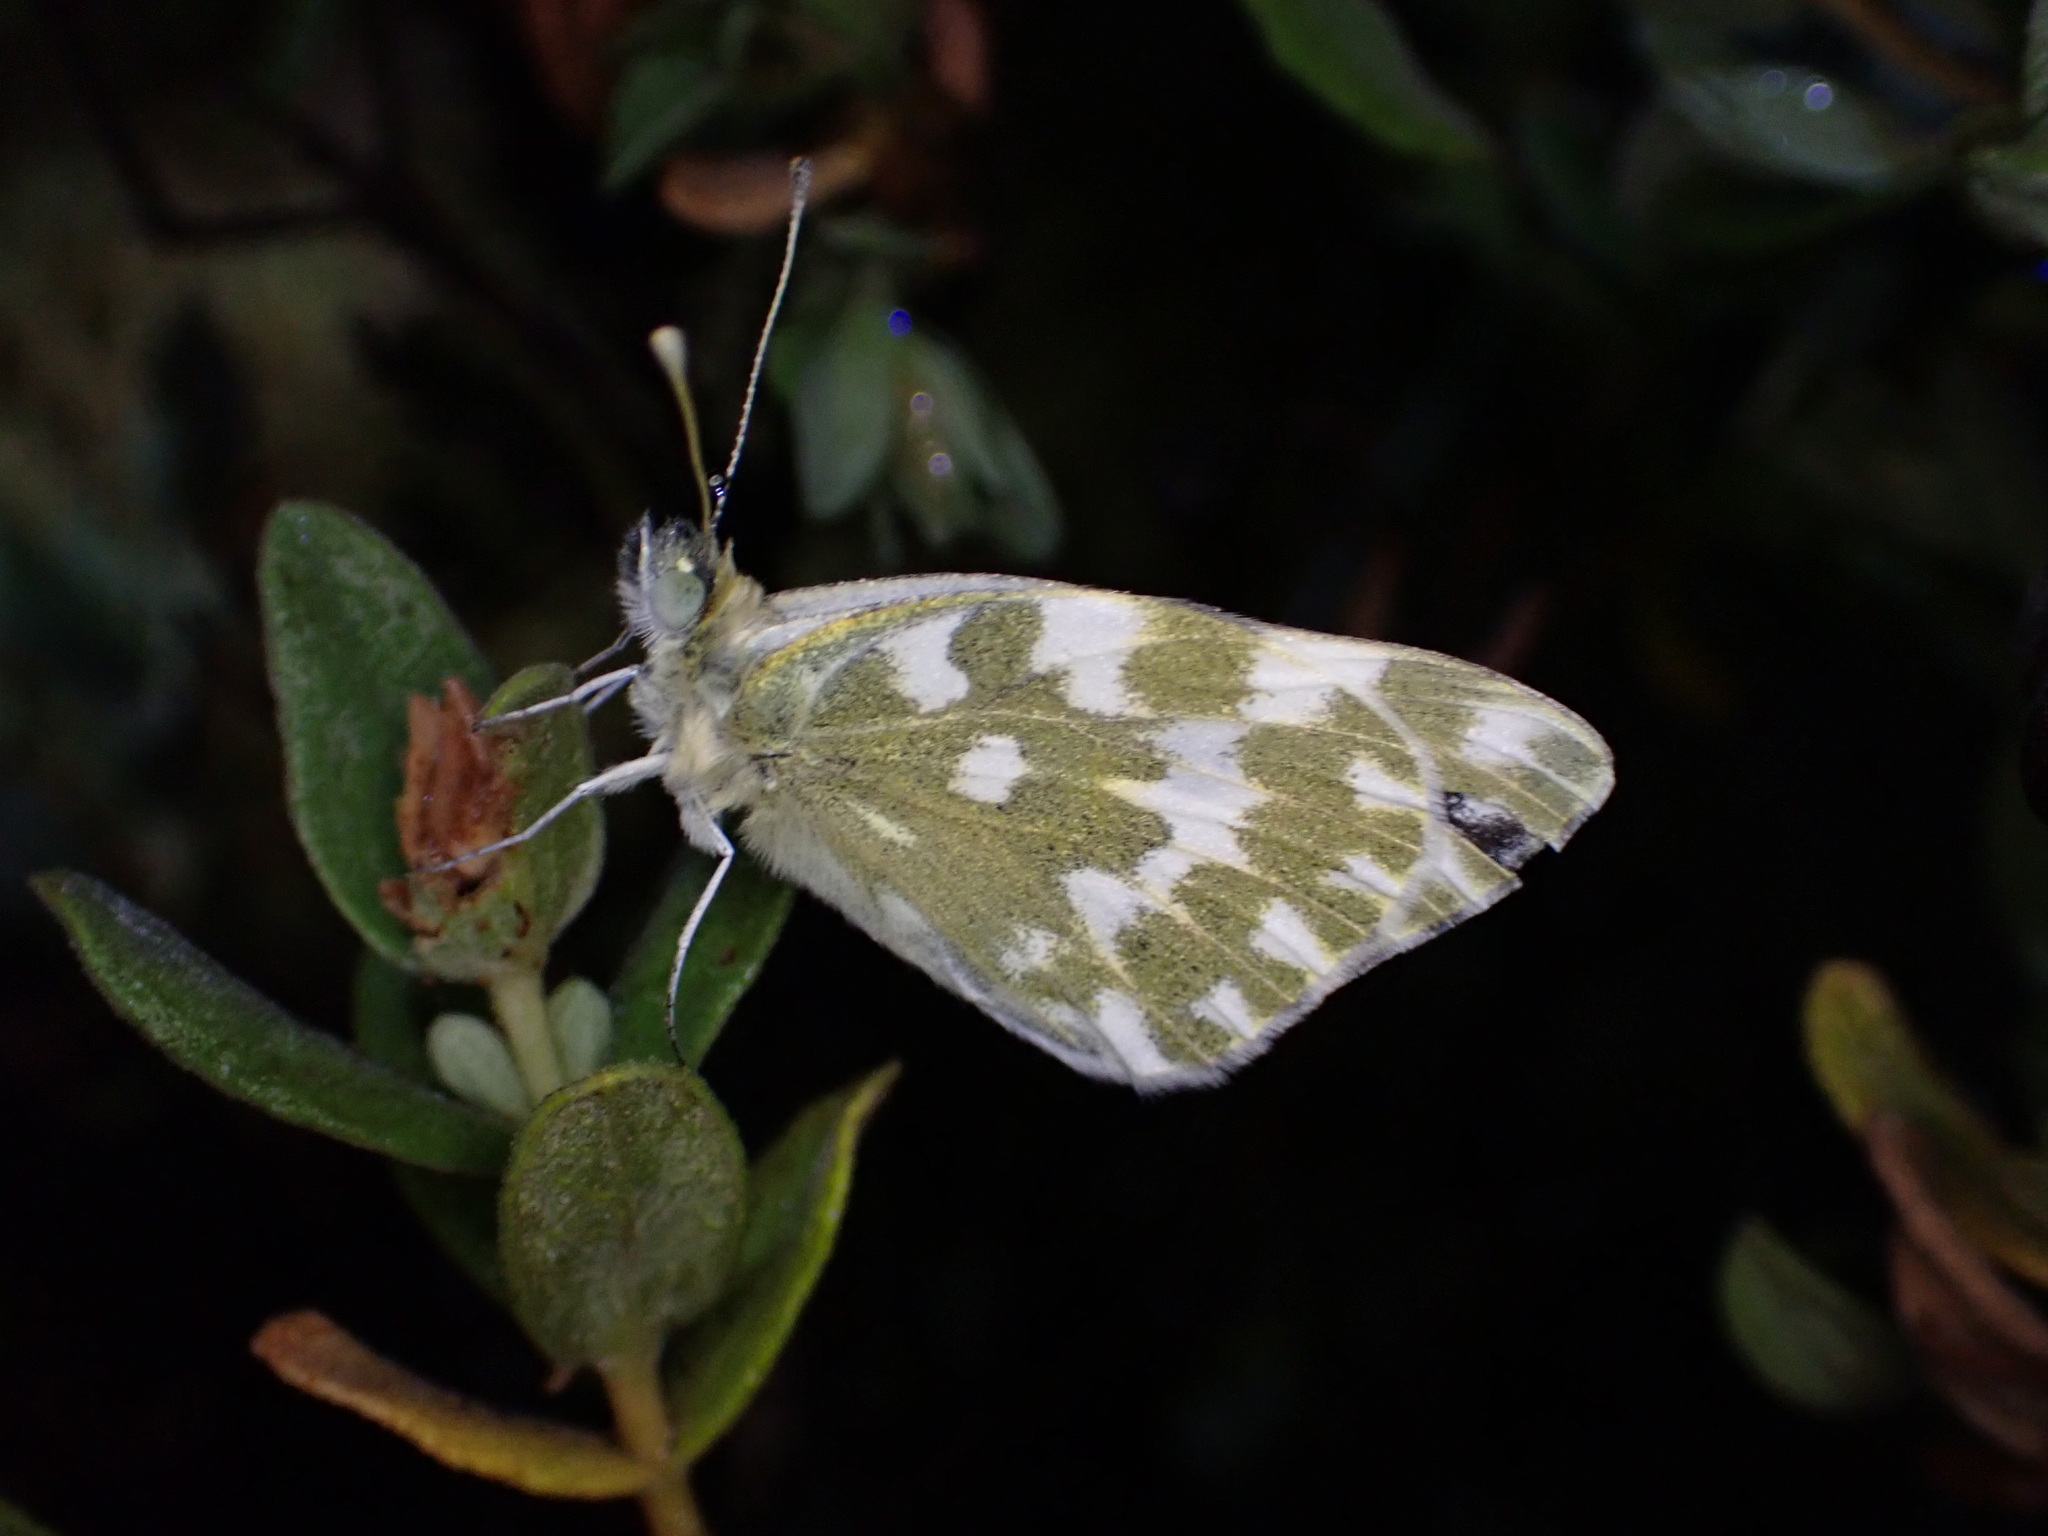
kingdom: Animalia
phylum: Arthropoda
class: Insecta
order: Lepidoptera
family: Pieridae
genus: Pontia
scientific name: Pontia daplidice
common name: Bath white
